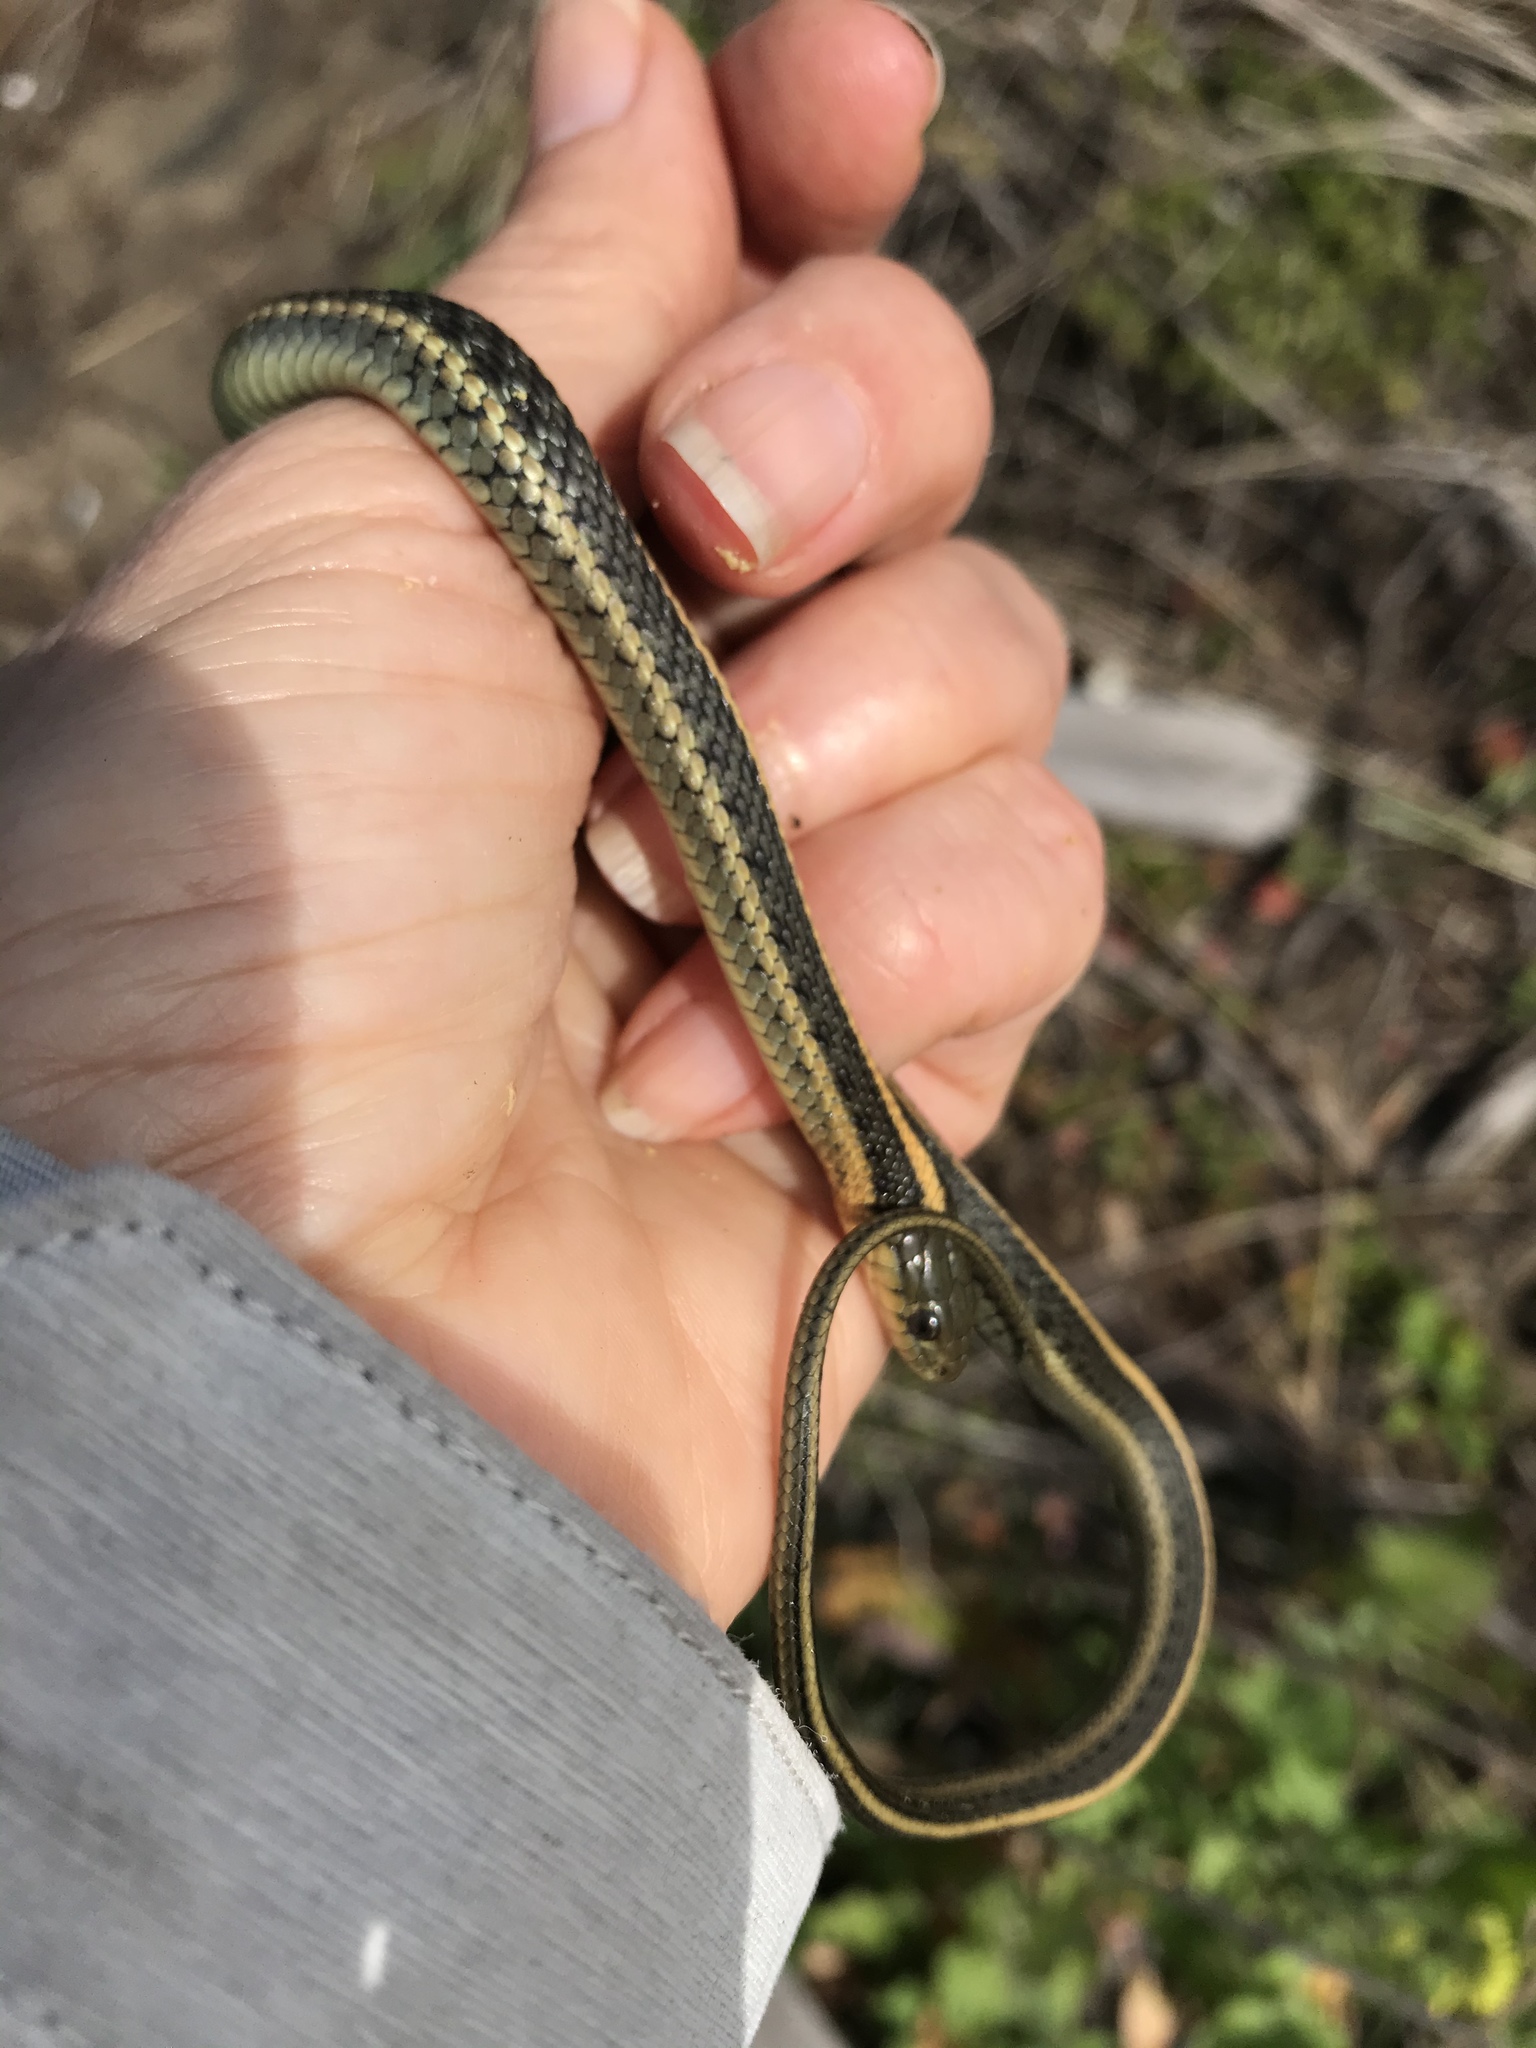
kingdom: Animalia
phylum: Chordata
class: Squamata
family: Colubridae
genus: Thamnophis
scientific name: Thamnophis atratus
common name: Pacific coast aquatic garter snake
